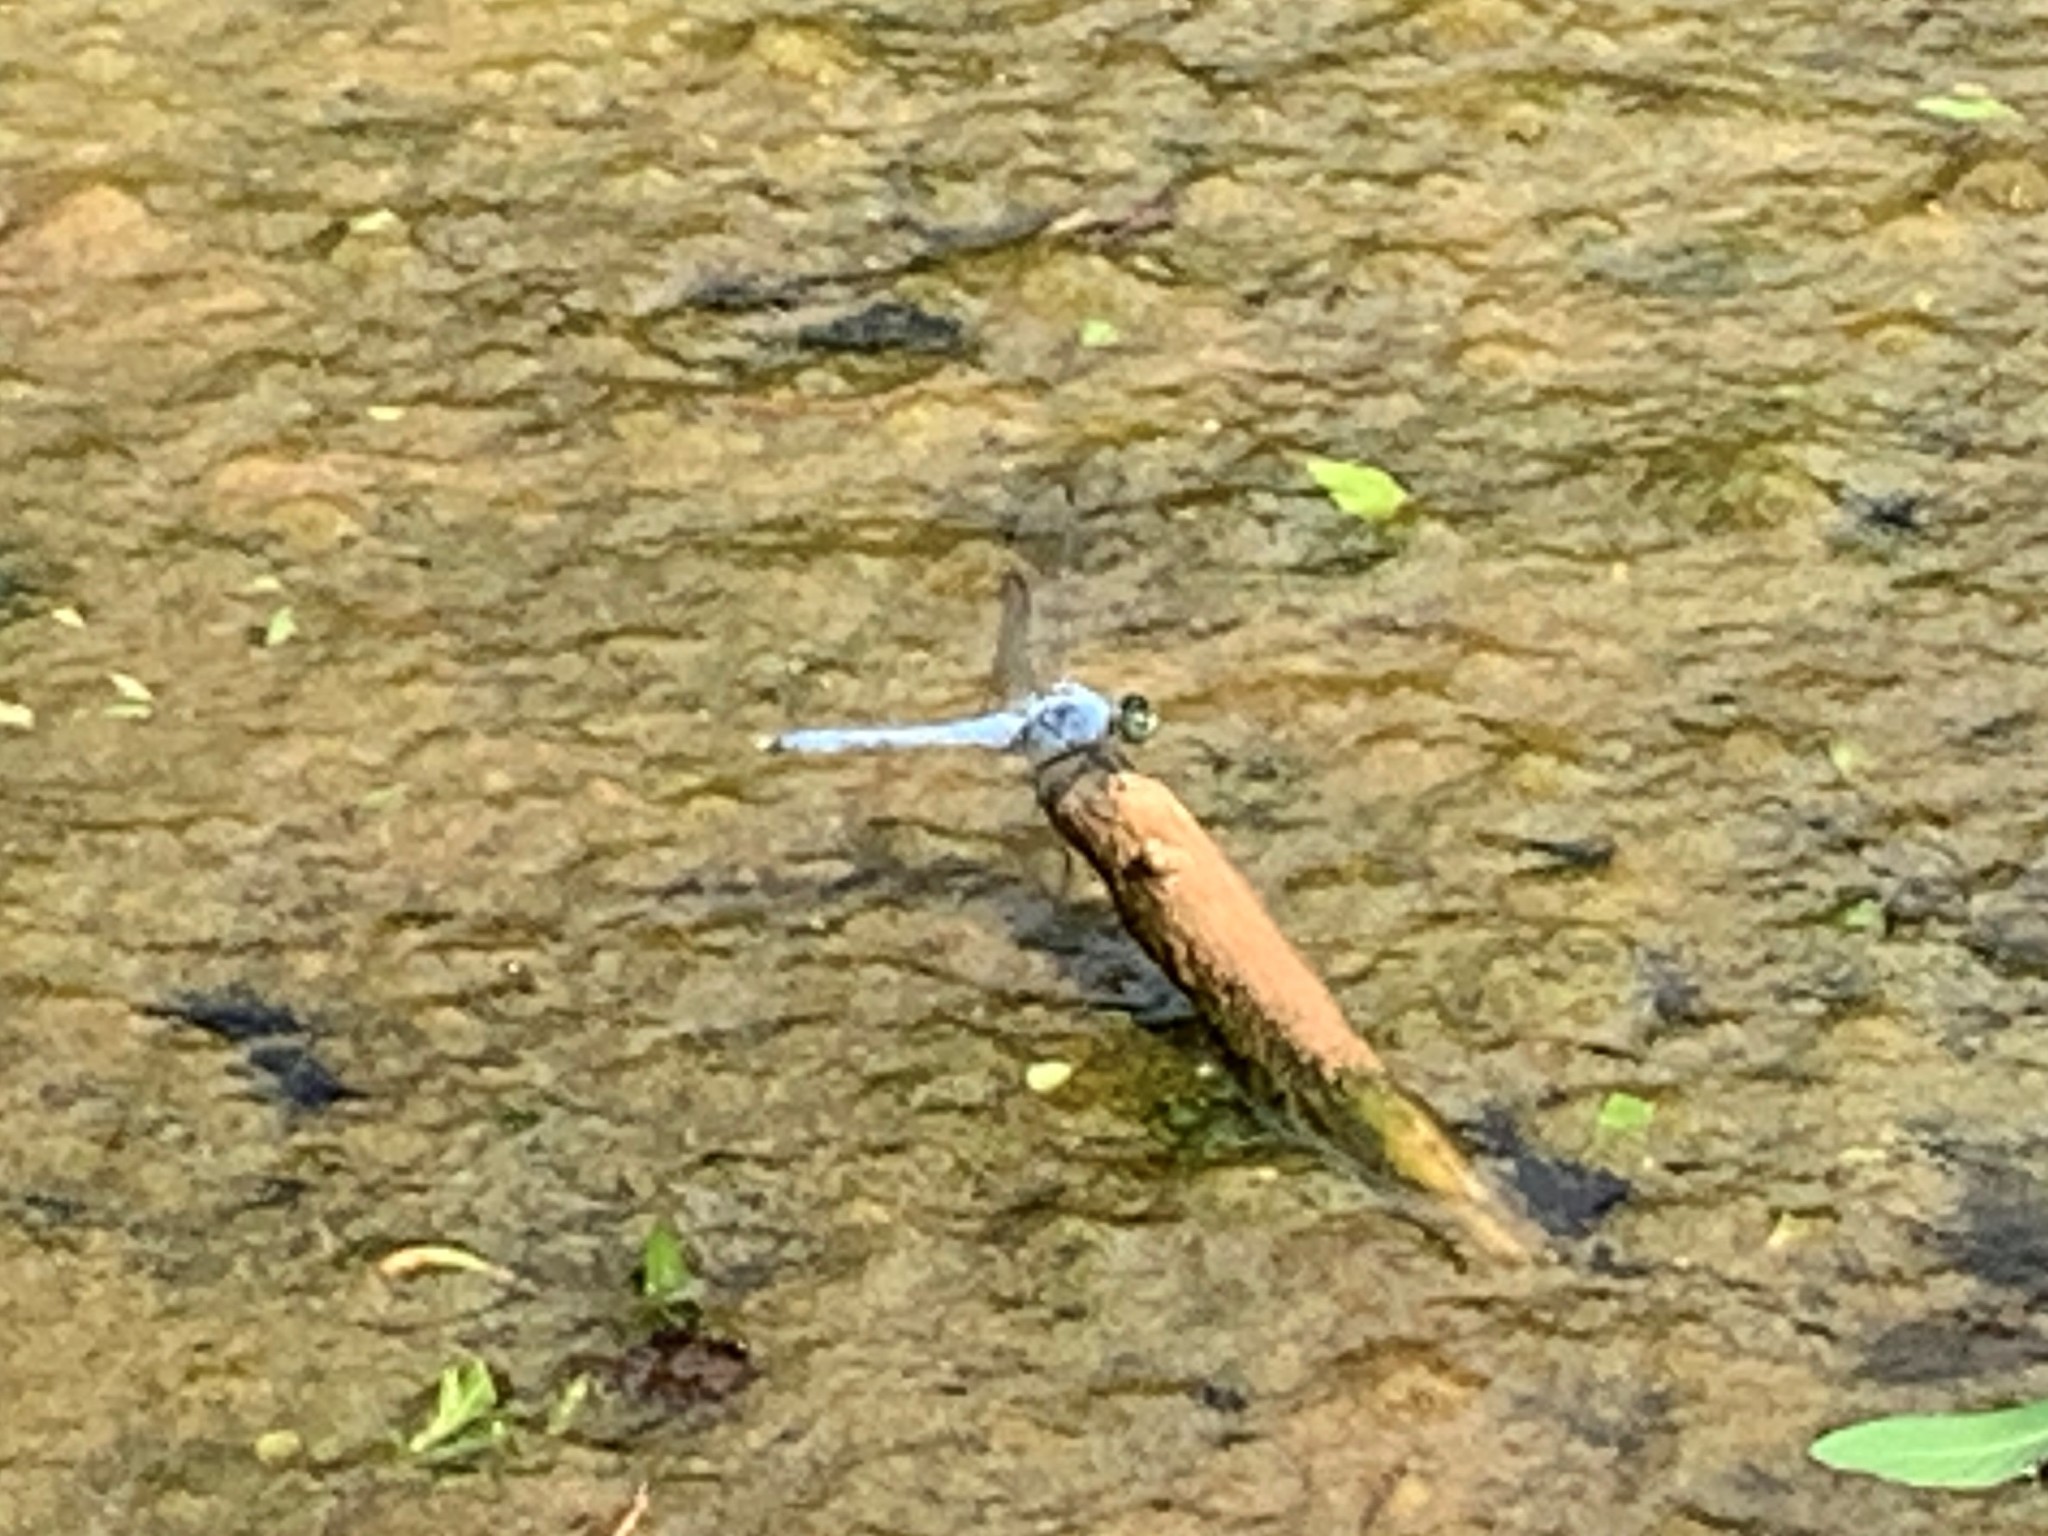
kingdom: Animalia
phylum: Arthropoda
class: Insecta
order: Odonata
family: Libellulidae
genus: Erythemis
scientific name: Erythemis simplicicollis
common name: Eastern pondhawk
